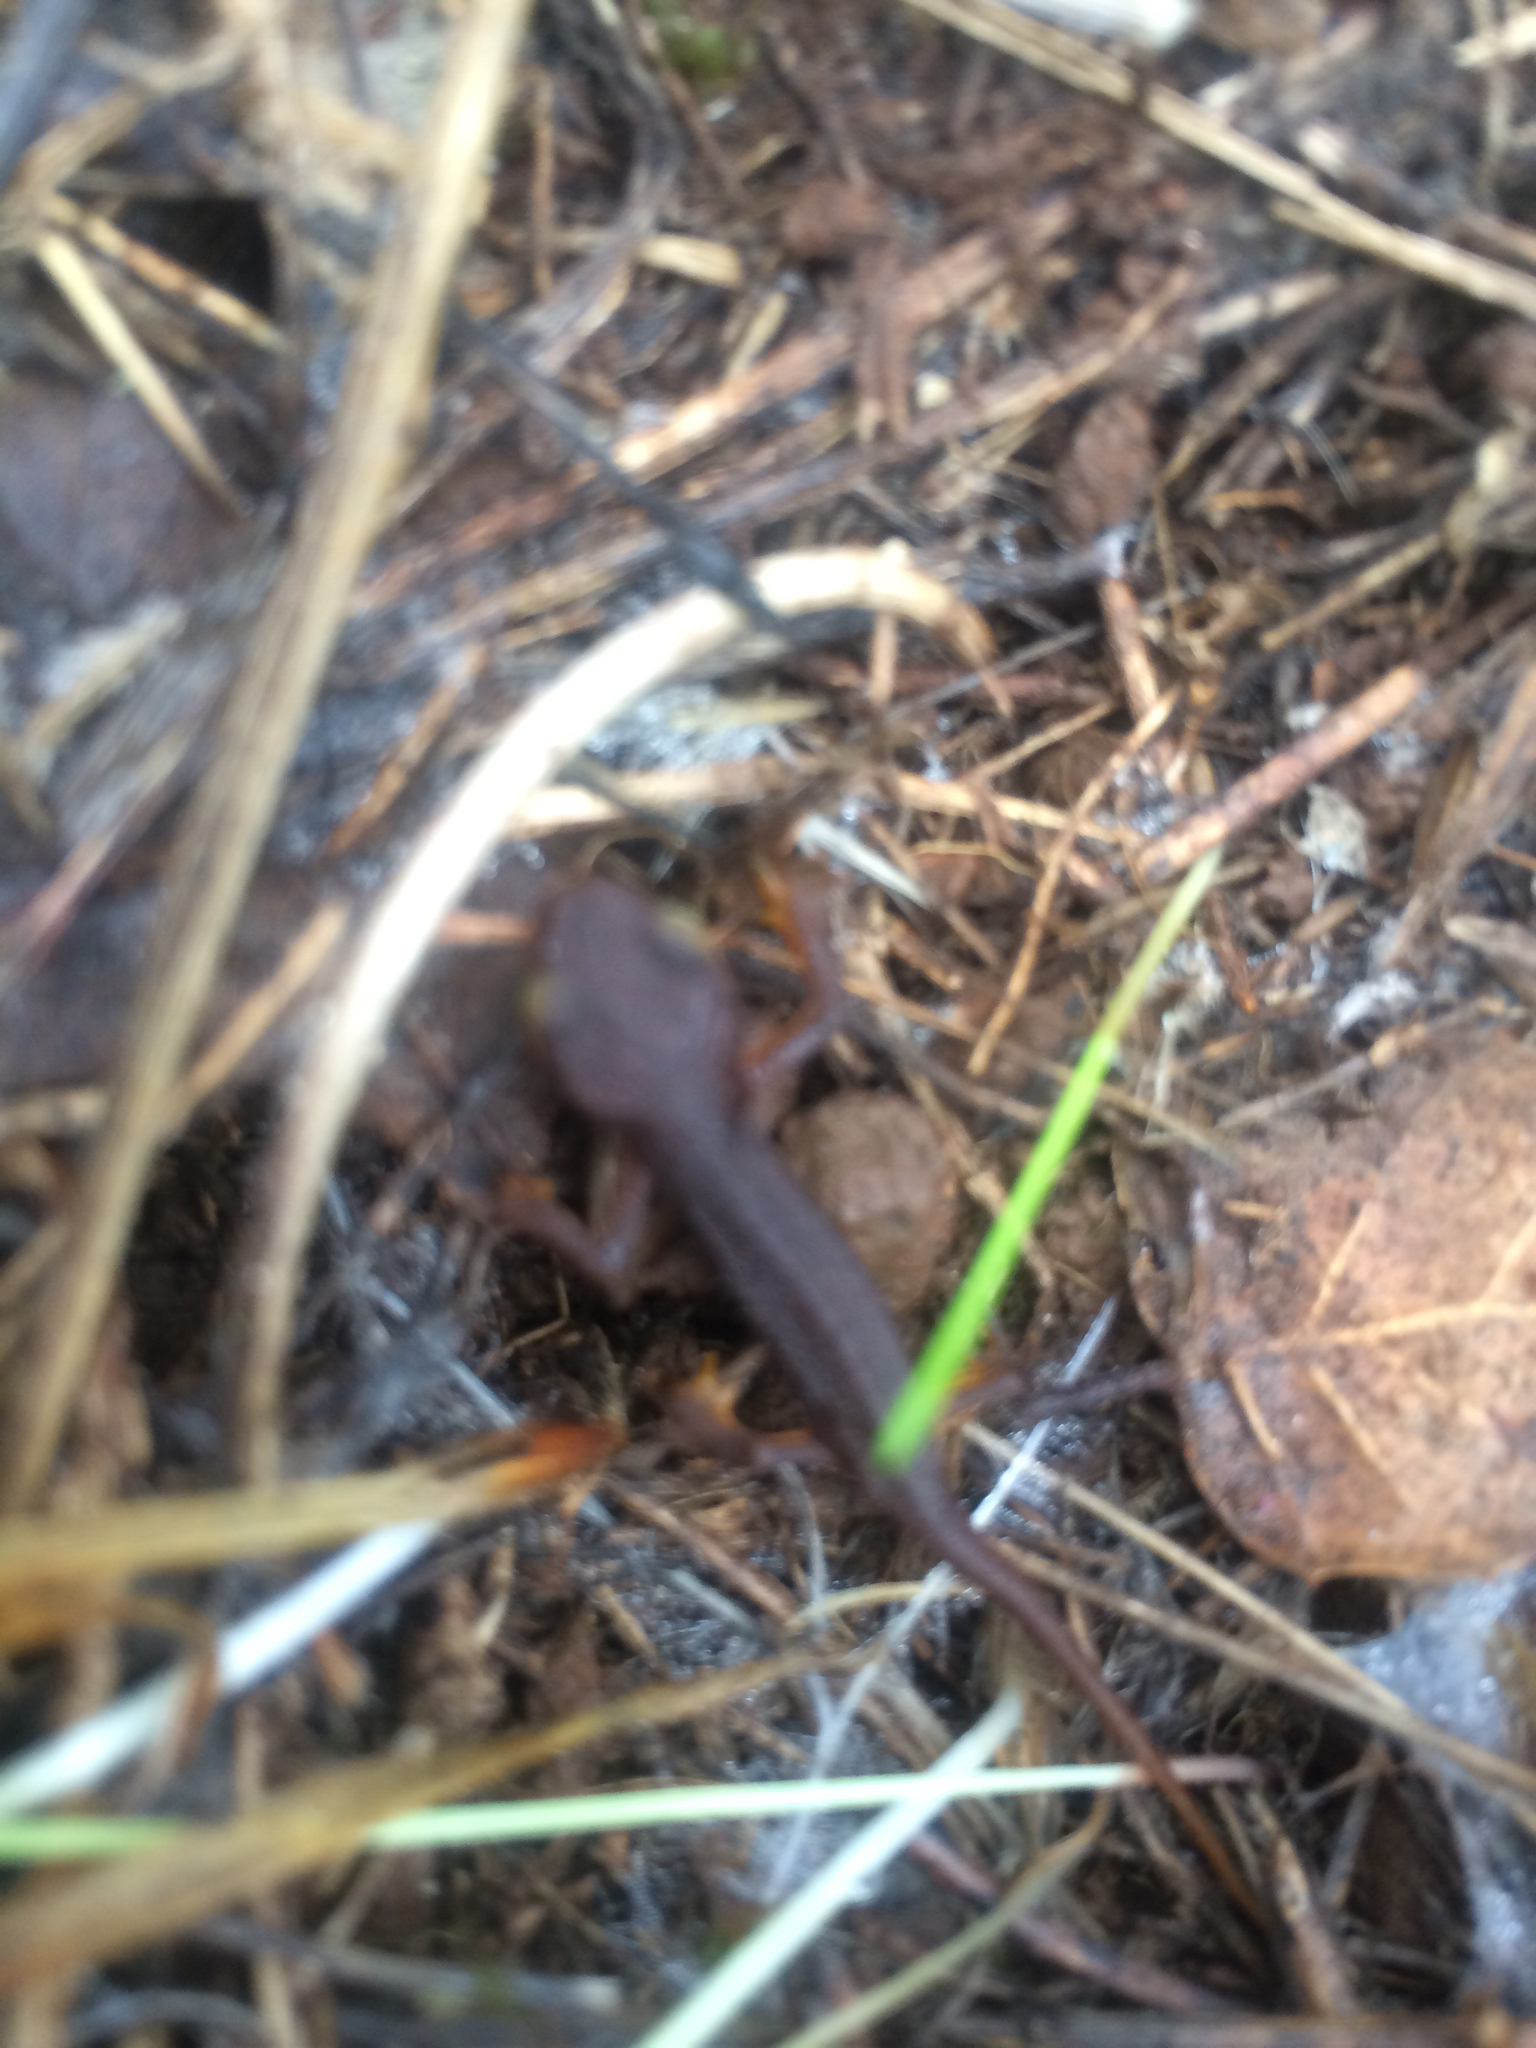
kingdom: Animalia
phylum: Chordata
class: Amphibia
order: Caudata
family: Salamandridae
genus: Taricha
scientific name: Taricha torosa
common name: California newt
